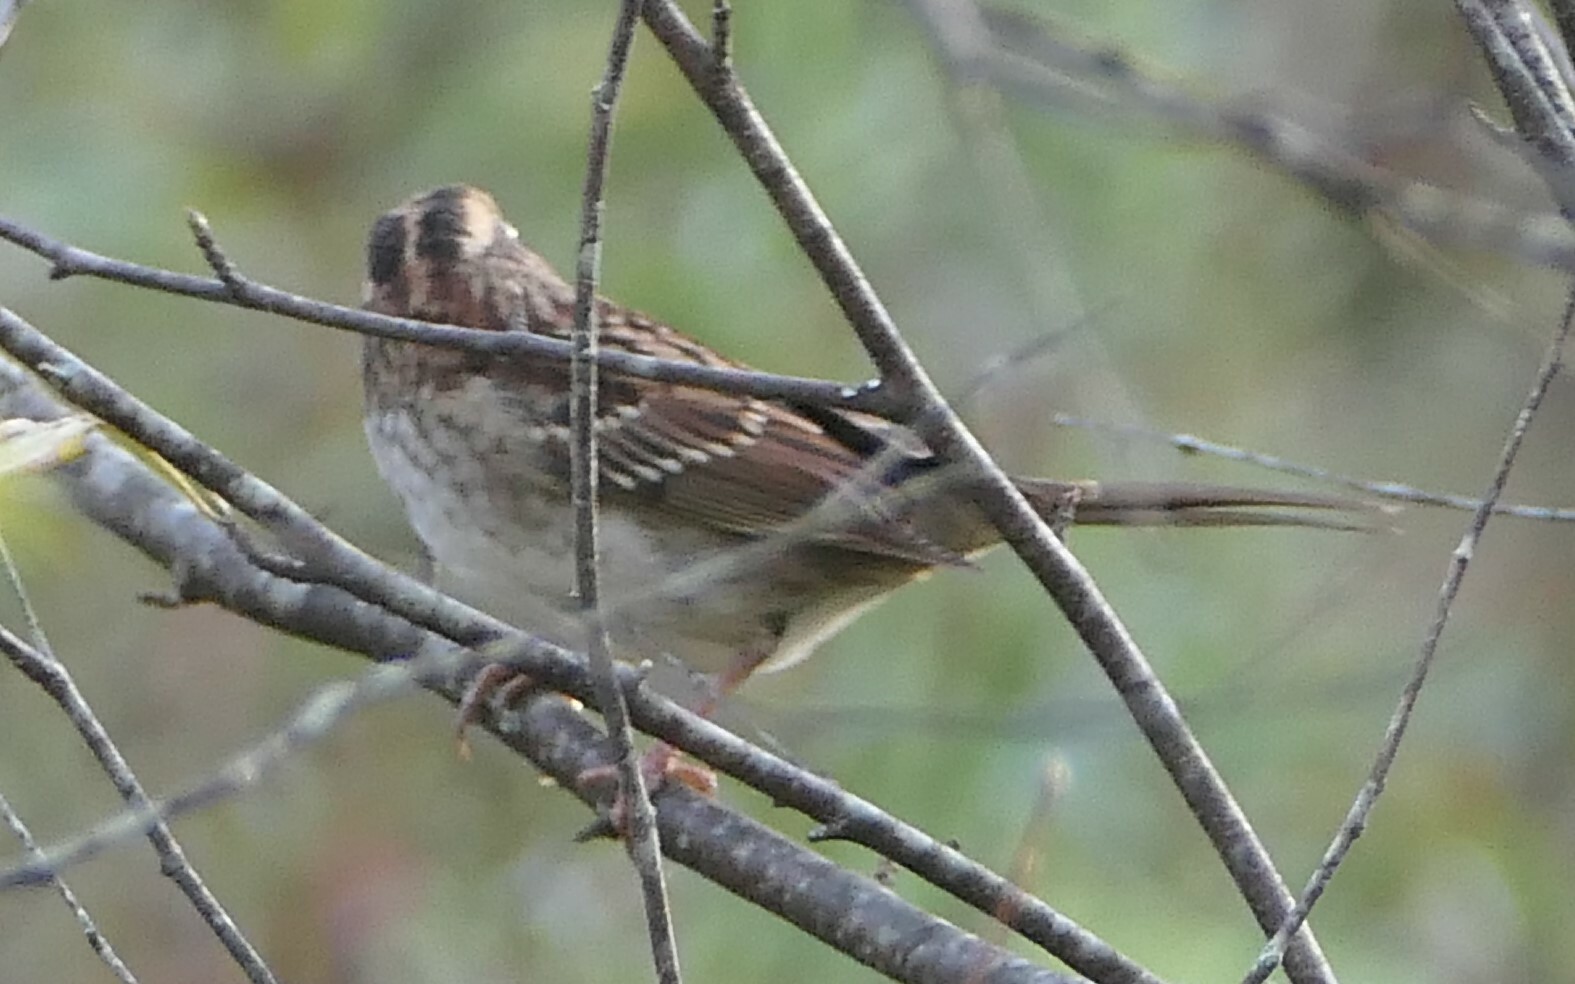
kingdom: Animalia
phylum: Chordata
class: Aves
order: Passeriformes
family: Passerellidae
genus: Zonotrichia
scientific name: Zonotrichia albicollis
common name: White-throated sparrow
